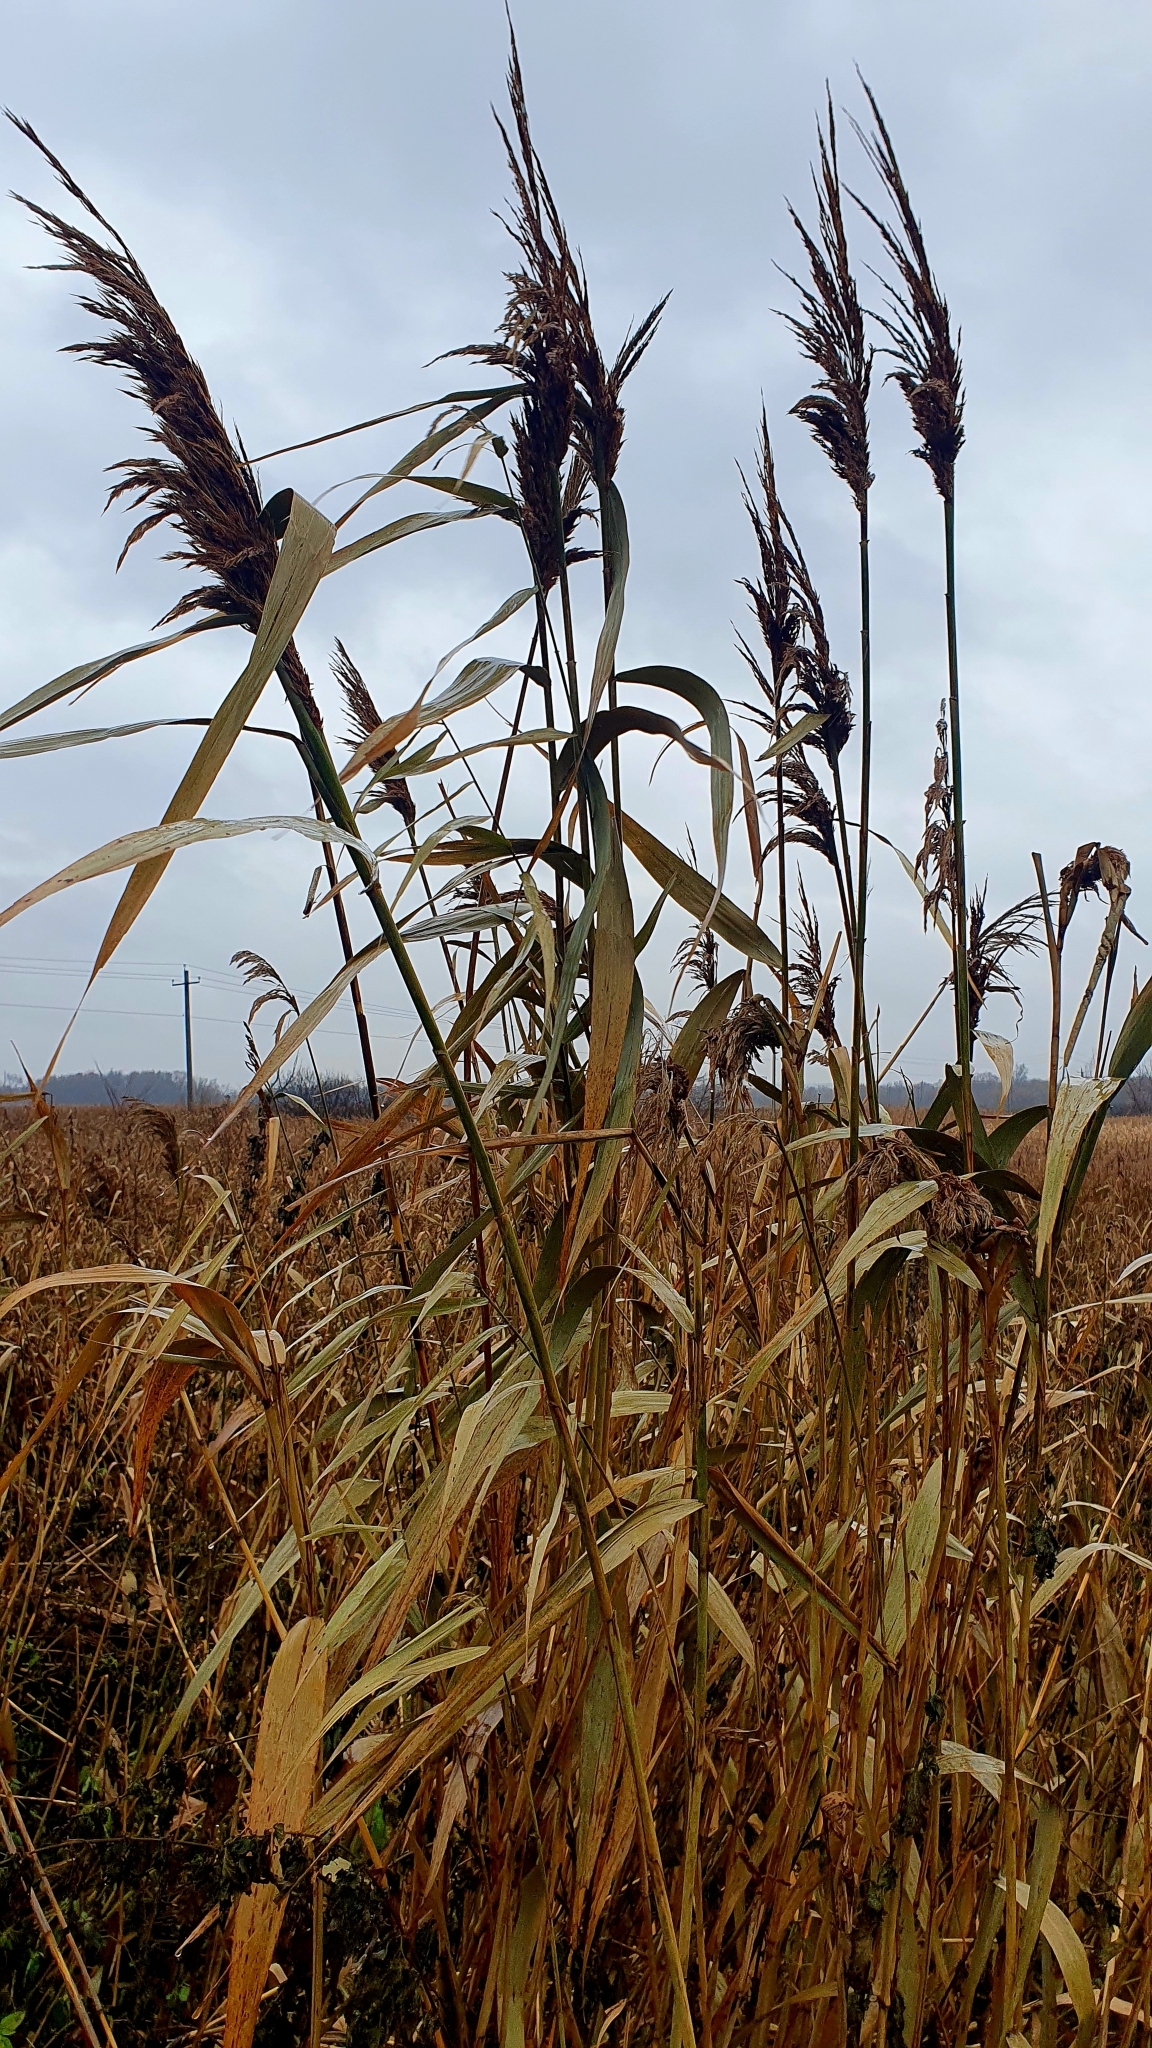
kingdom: Plantae
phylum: Tracheophyta
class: Liliopsida
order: Poales
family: Poaceae
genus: Phragmites
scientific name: Phragmites australis
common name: Common reed
